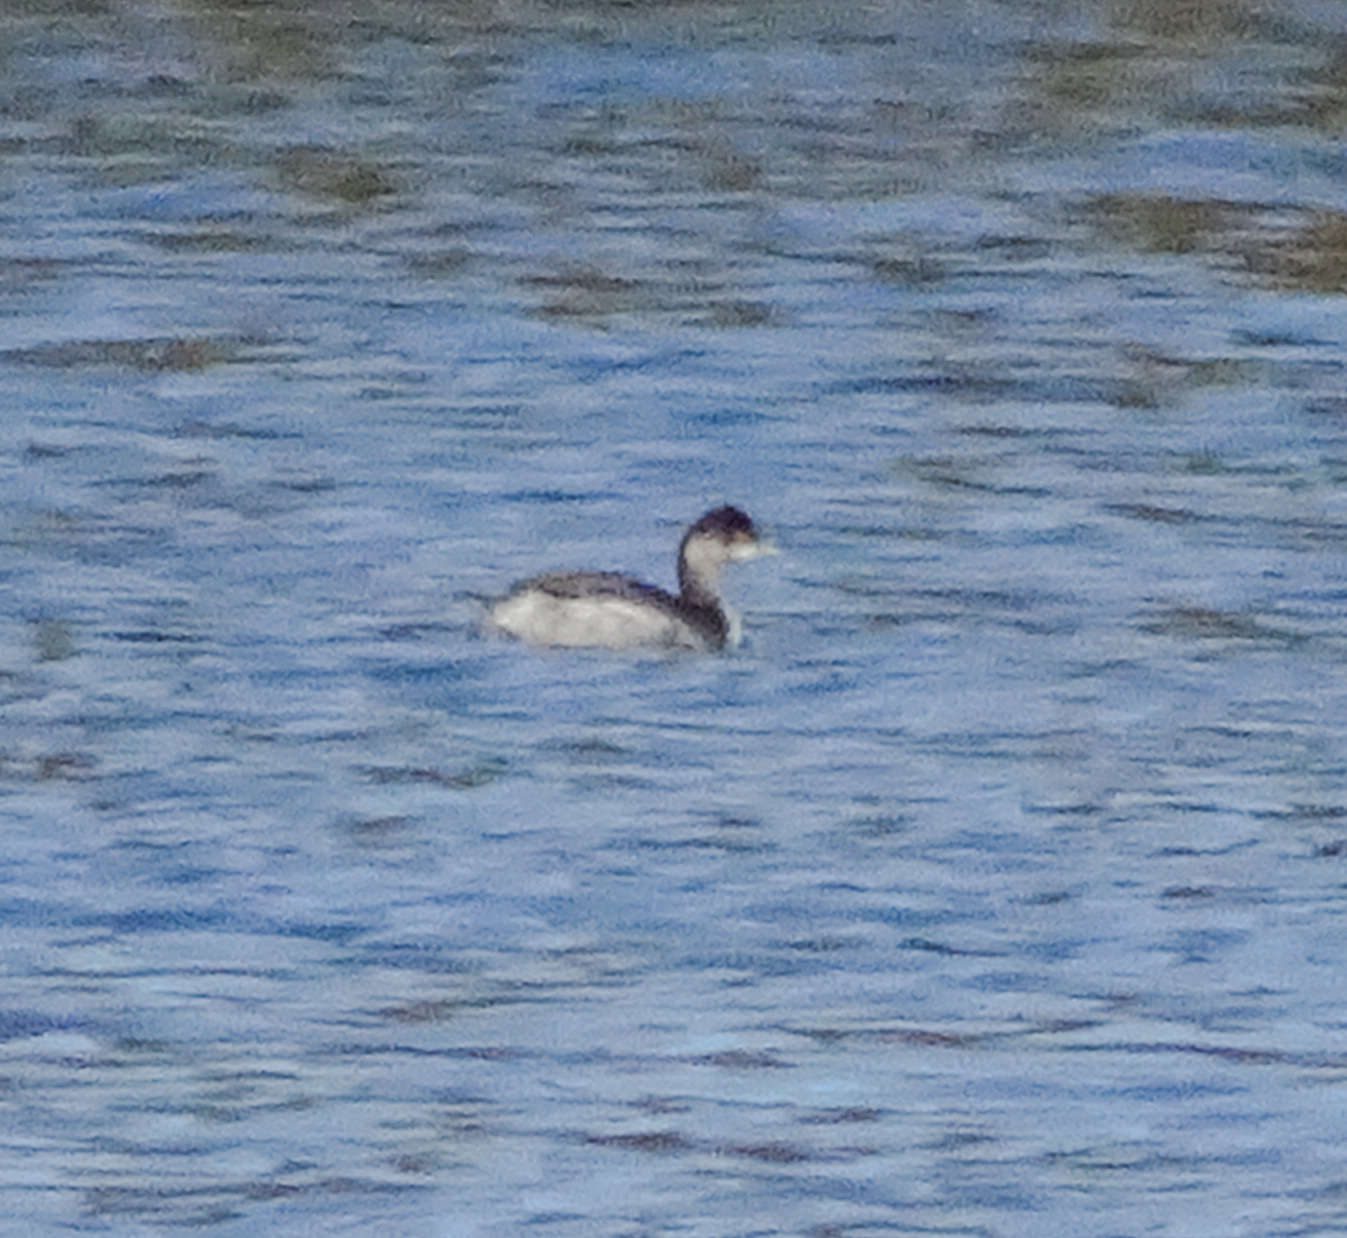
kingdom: Animalia
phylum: Chordata
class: Aves
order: Podicipediformes
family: Podicipedidae
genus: Podiceps
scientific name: Podiceps nigricollis
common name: Black-necked grebe
